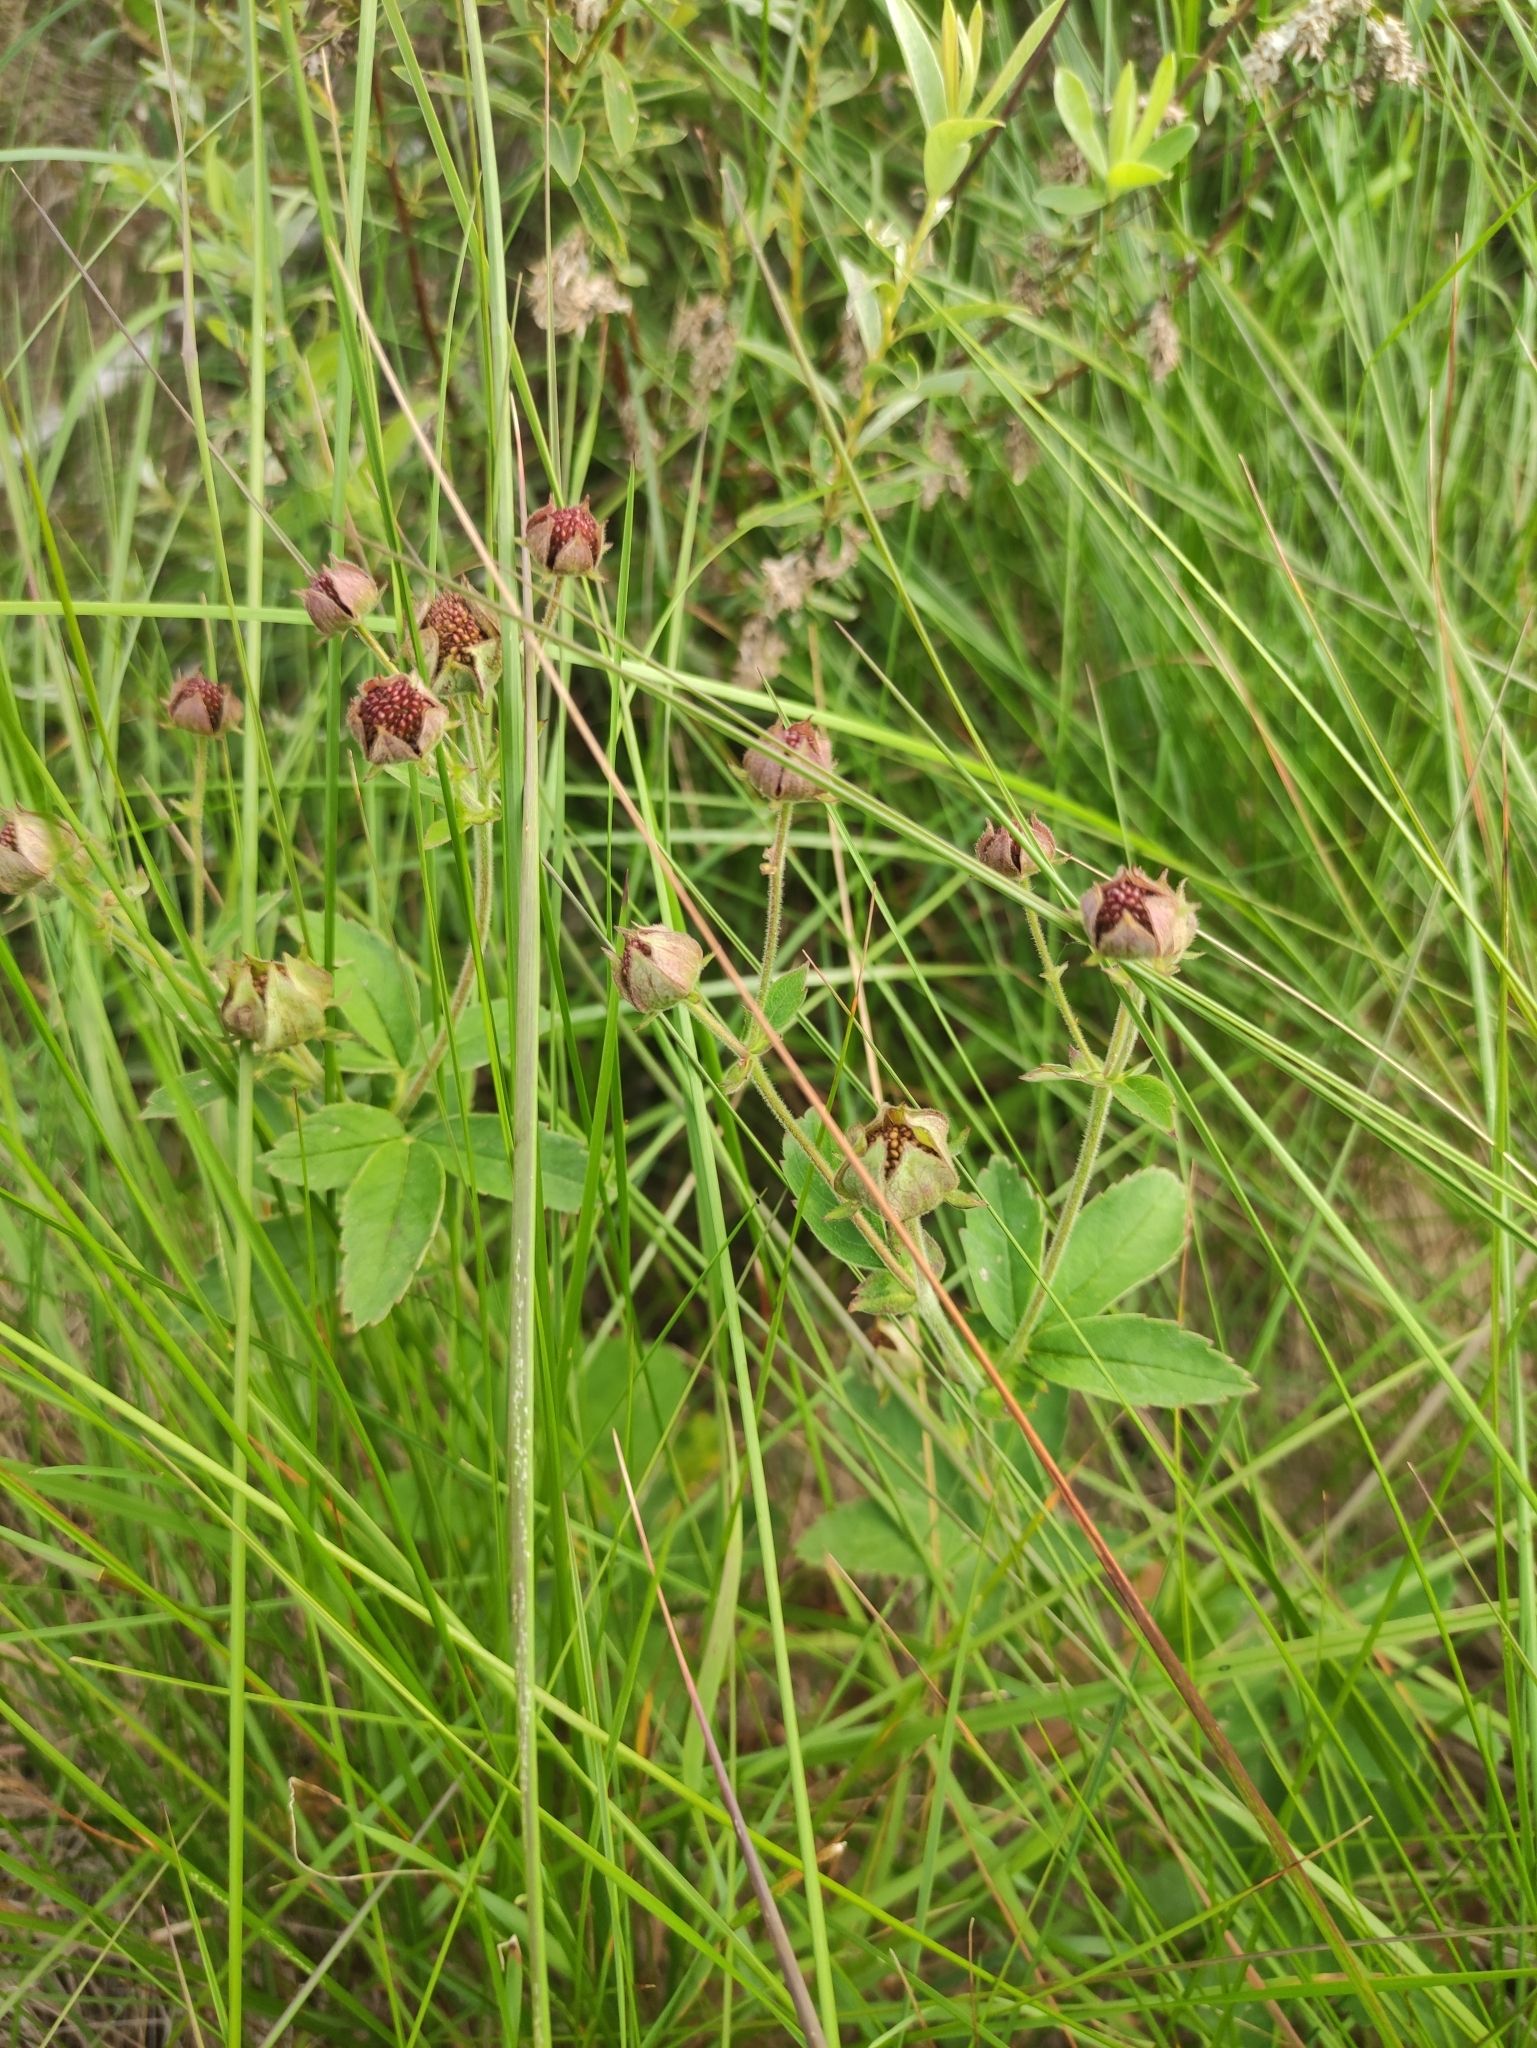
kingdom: Plantae
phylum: Tracheophyta
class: Magnoliopsida
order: Rosales
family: Rosaceae
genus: Comarum
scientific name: Comarum palustre
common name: Marsh cinquefoil
